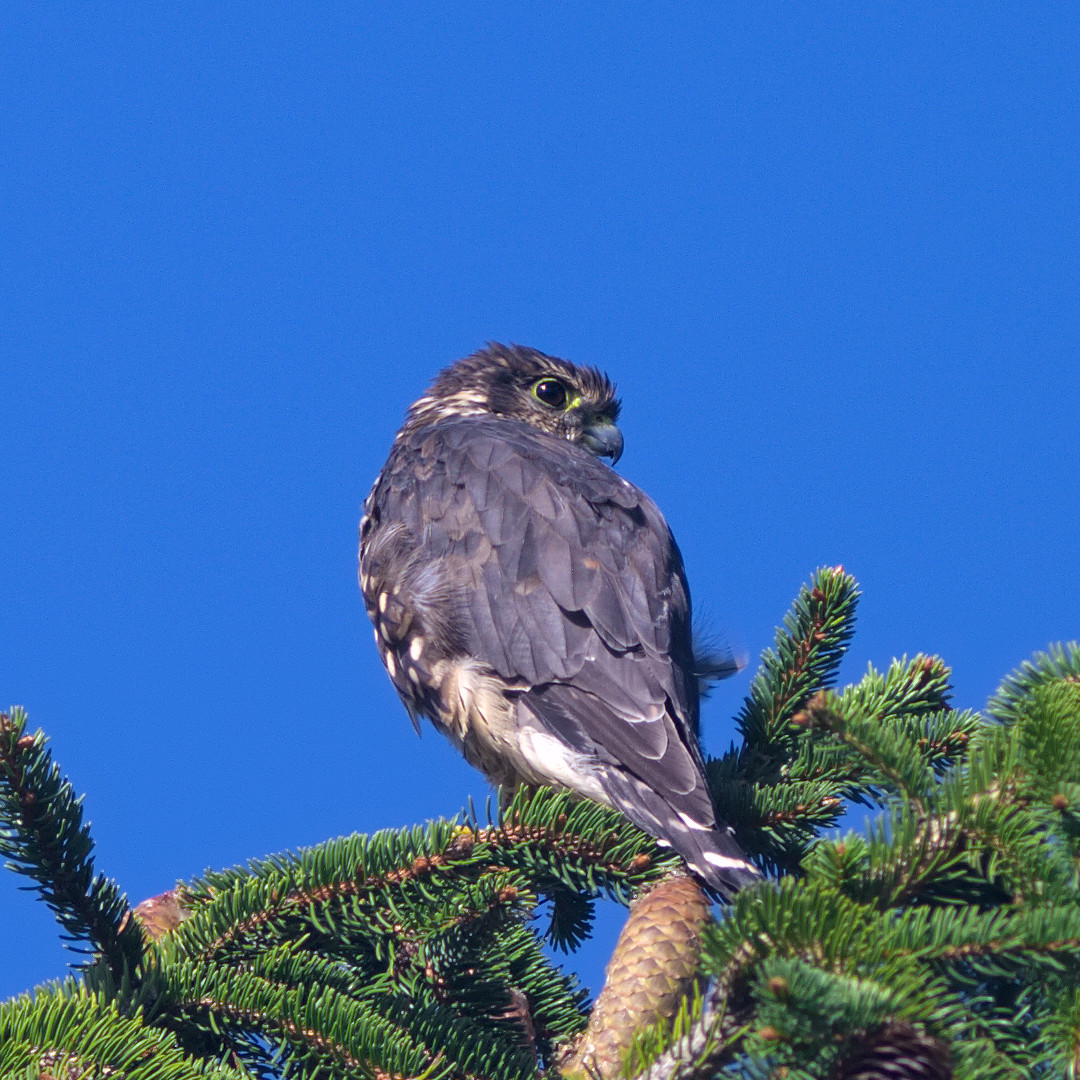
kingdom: Animalia
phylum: Chordata
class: Aves
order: Falconiformes
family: Falconidae
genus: Falco
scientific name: Falco columbarius
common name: Merlin
